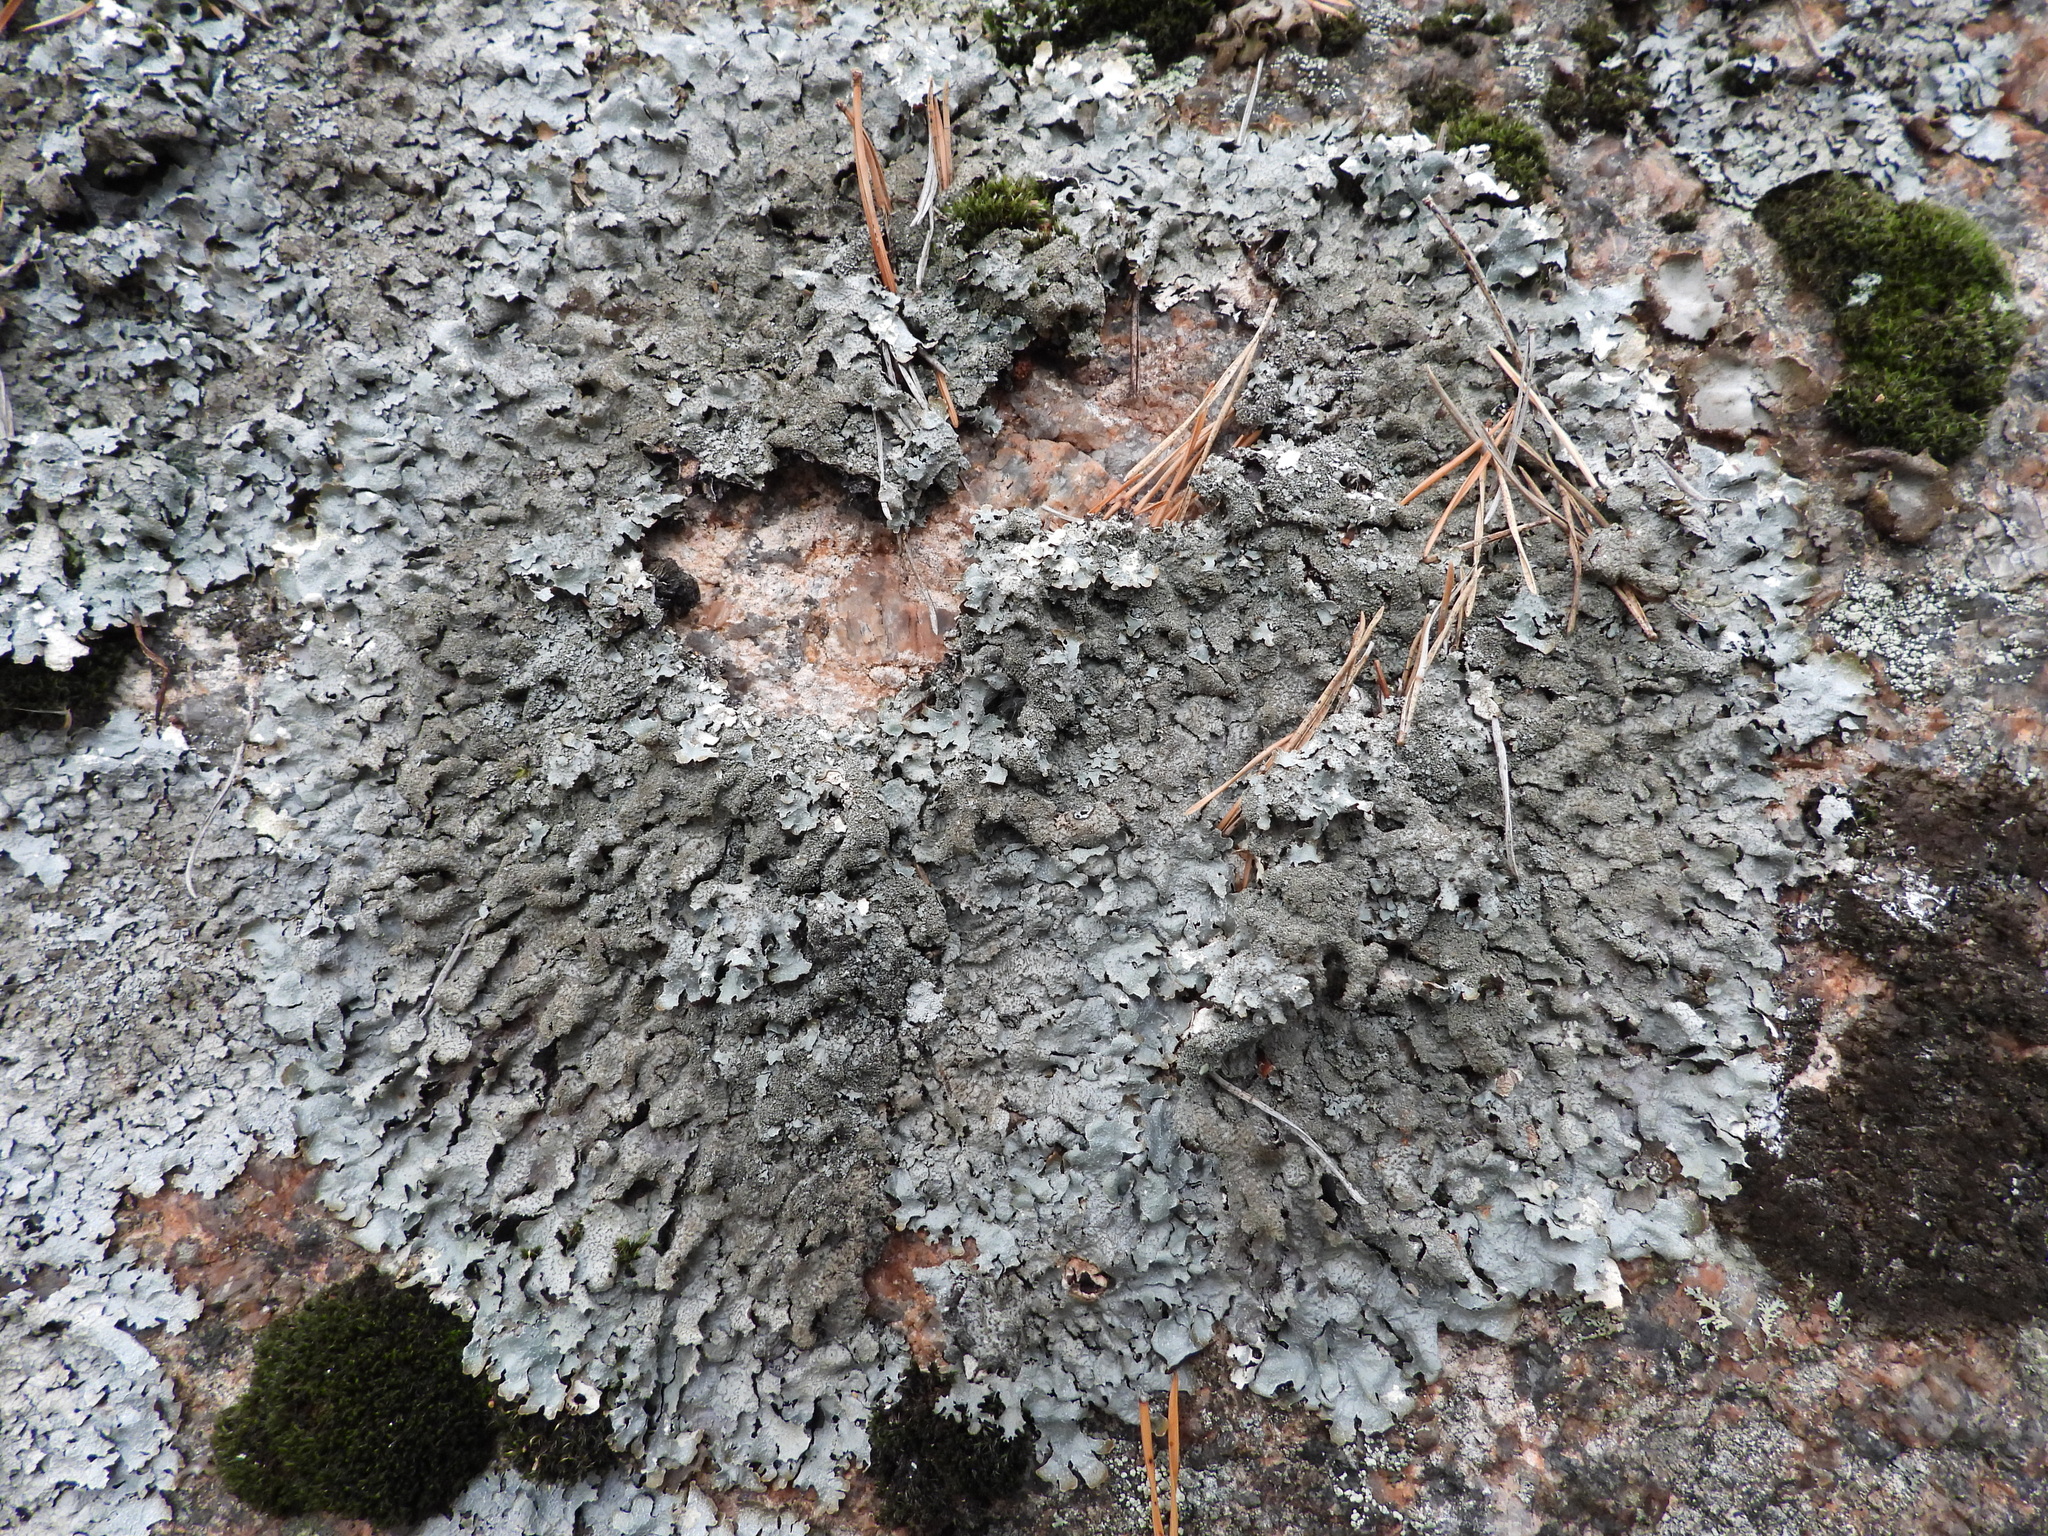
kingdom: Fungi
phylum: Ascomycota
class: Lecanoromycetes
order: Lecanorales
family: Parmeliaceae
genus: Parmelia
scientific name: Parmelia saxatilis
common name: Salted shield lichen
